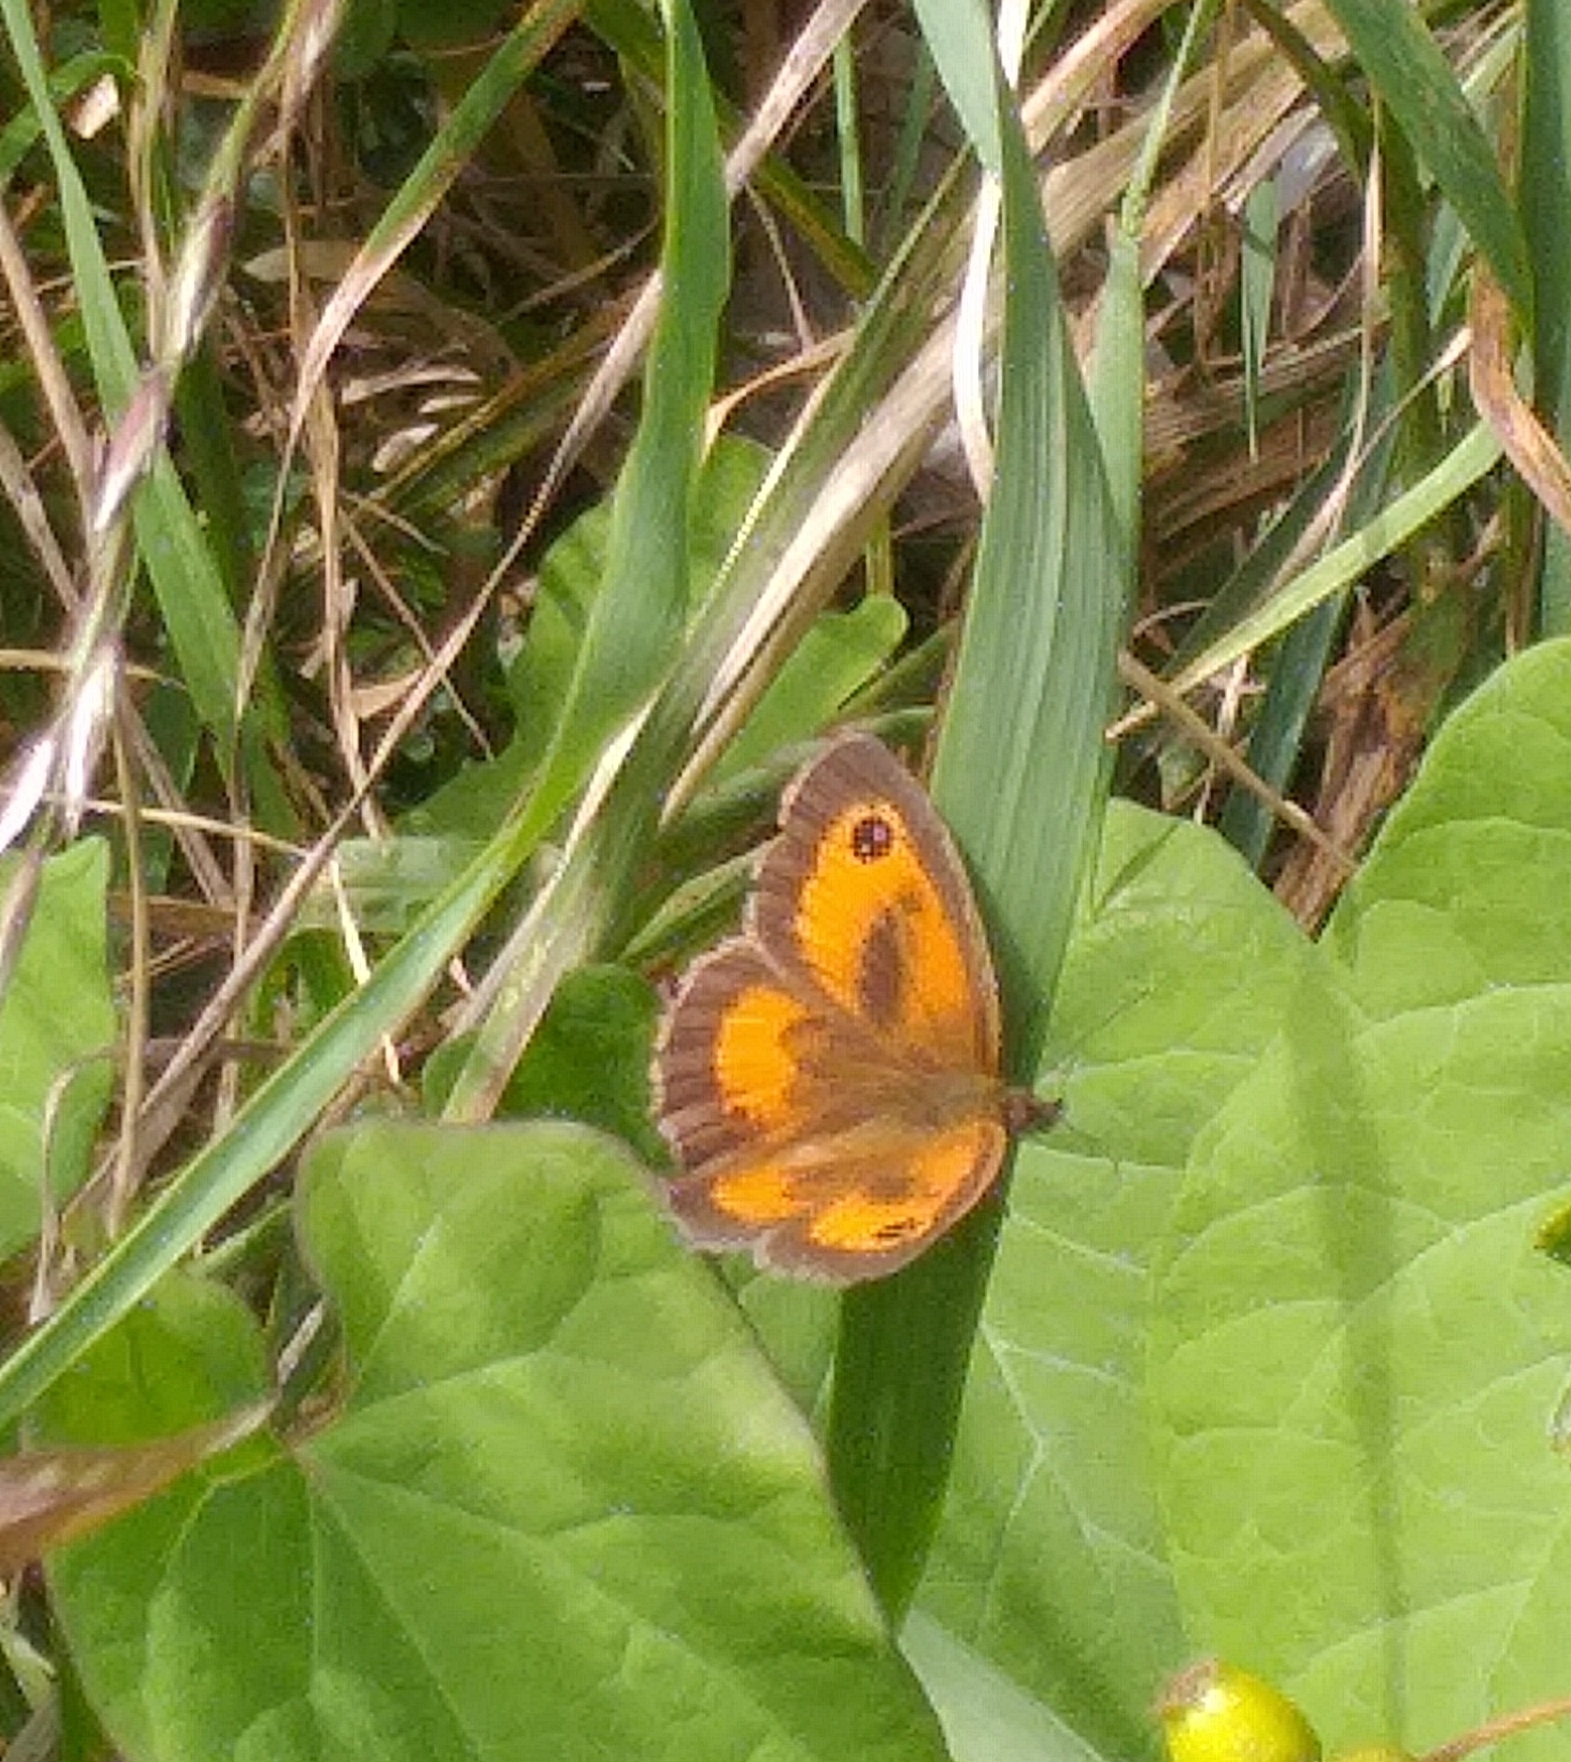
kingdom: Animalia
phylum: Arthropoda
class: Insecta
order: Lepidoptera
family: Nymphalidae
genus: Pyronia
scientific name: Pyronia tithonus
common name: Gatekeeper
